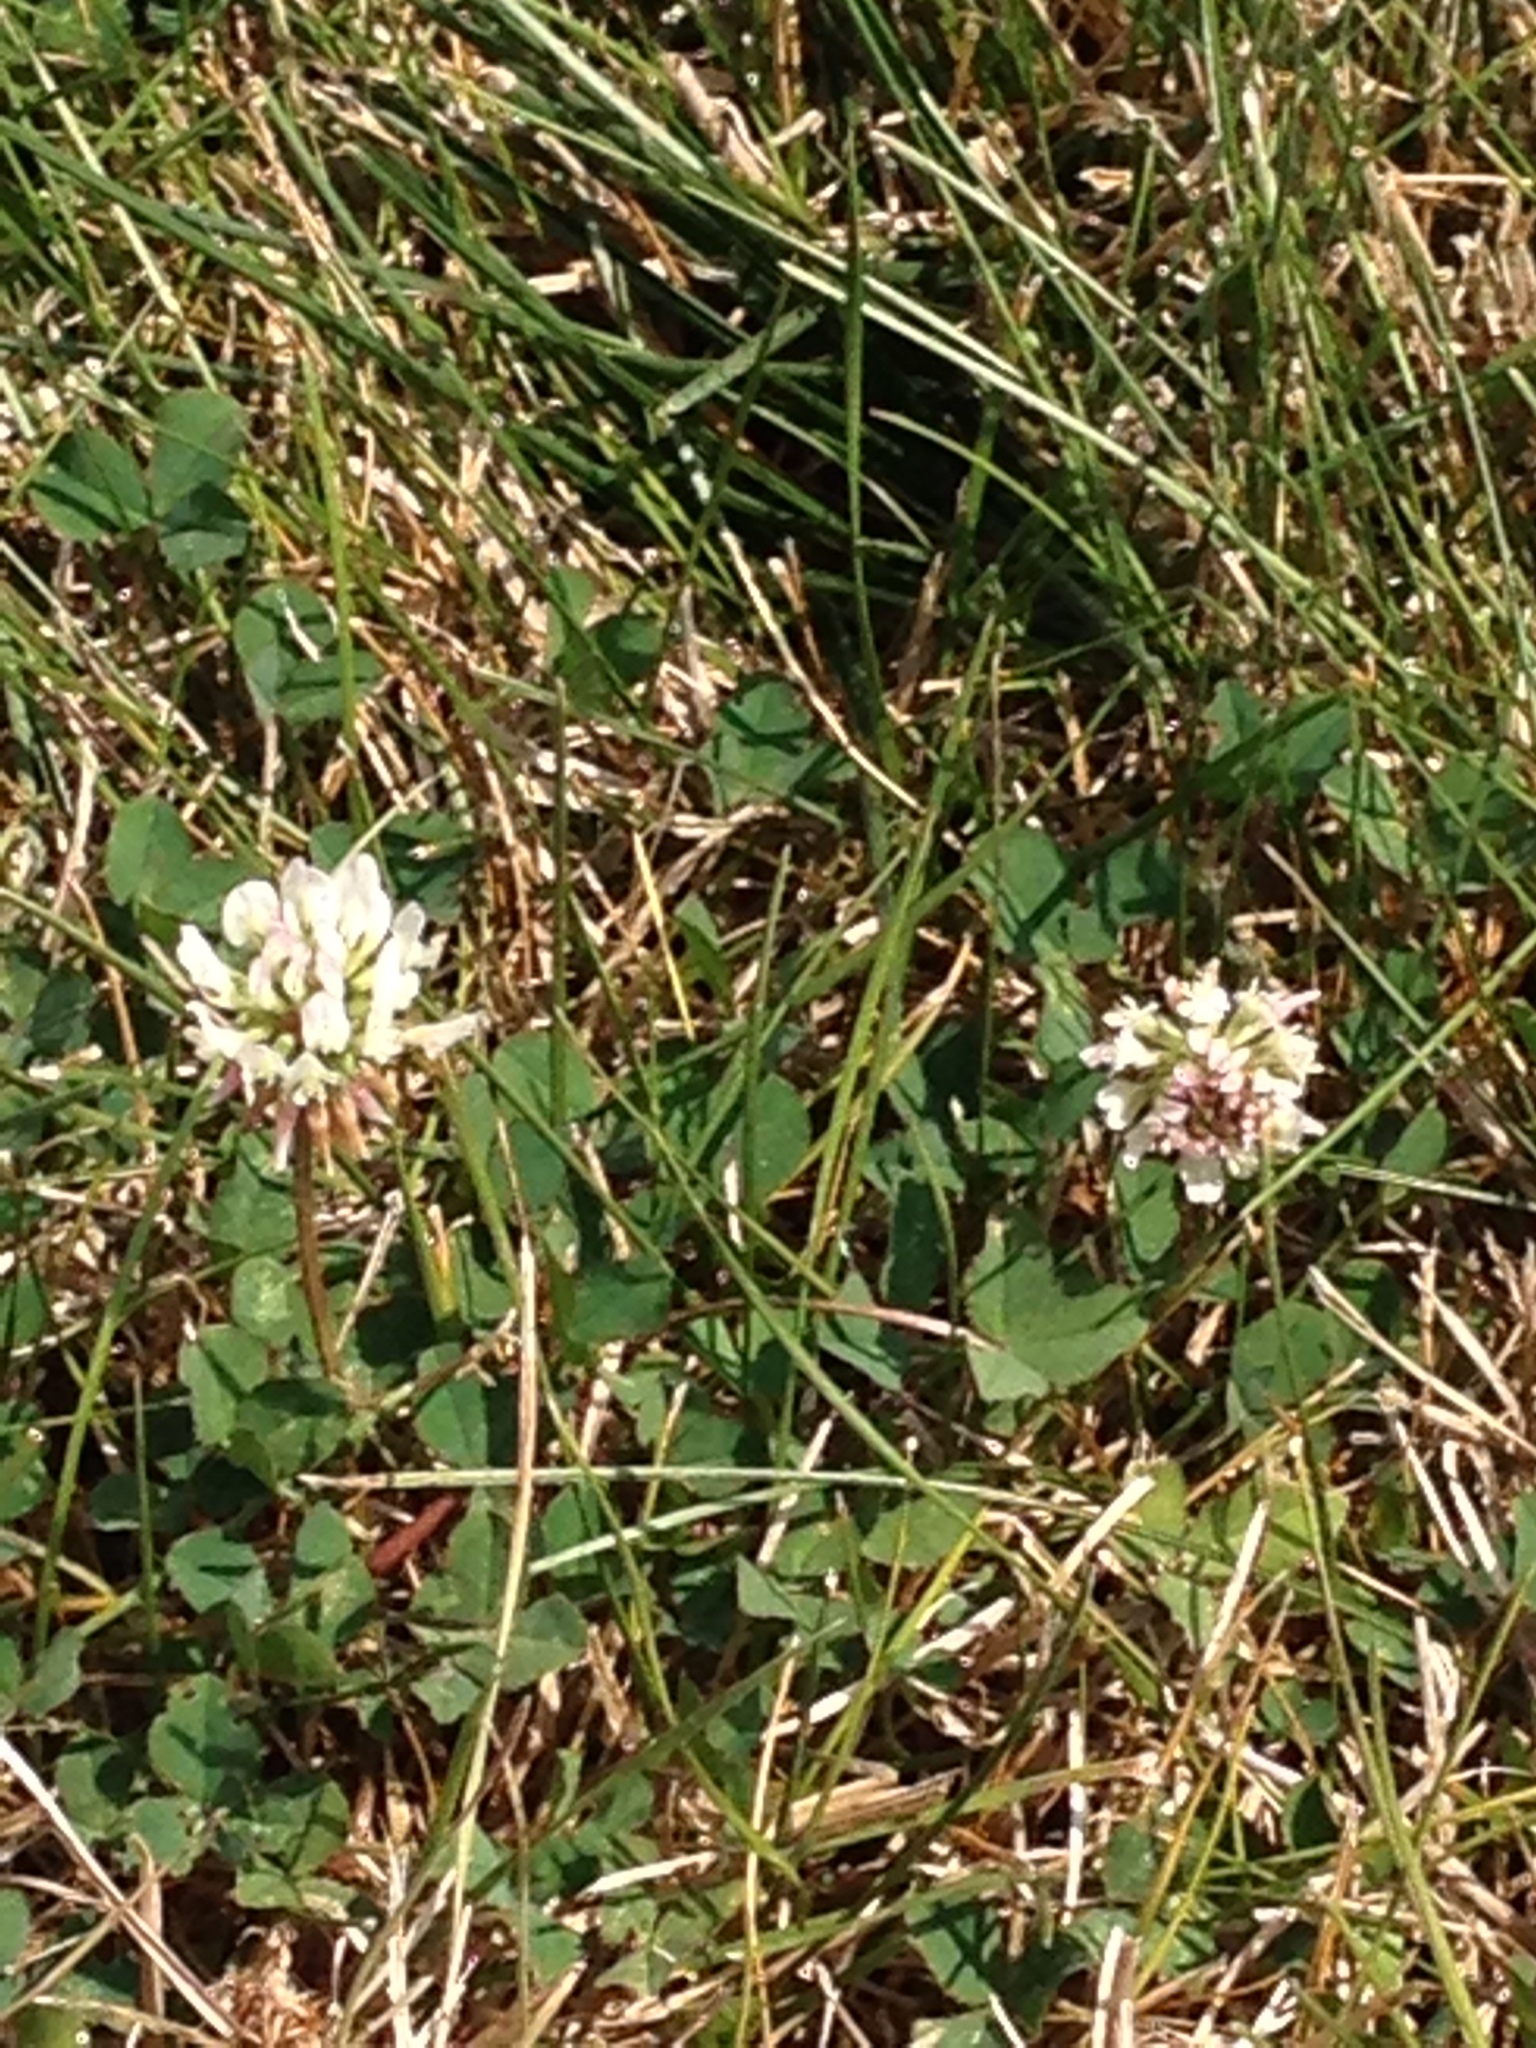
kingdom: Plantae
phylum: Tracheophyta
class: Magnoliopsida
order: Fabales
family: Fabaceae
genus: Trifolium
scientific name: Trifolium repens
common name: White clover
